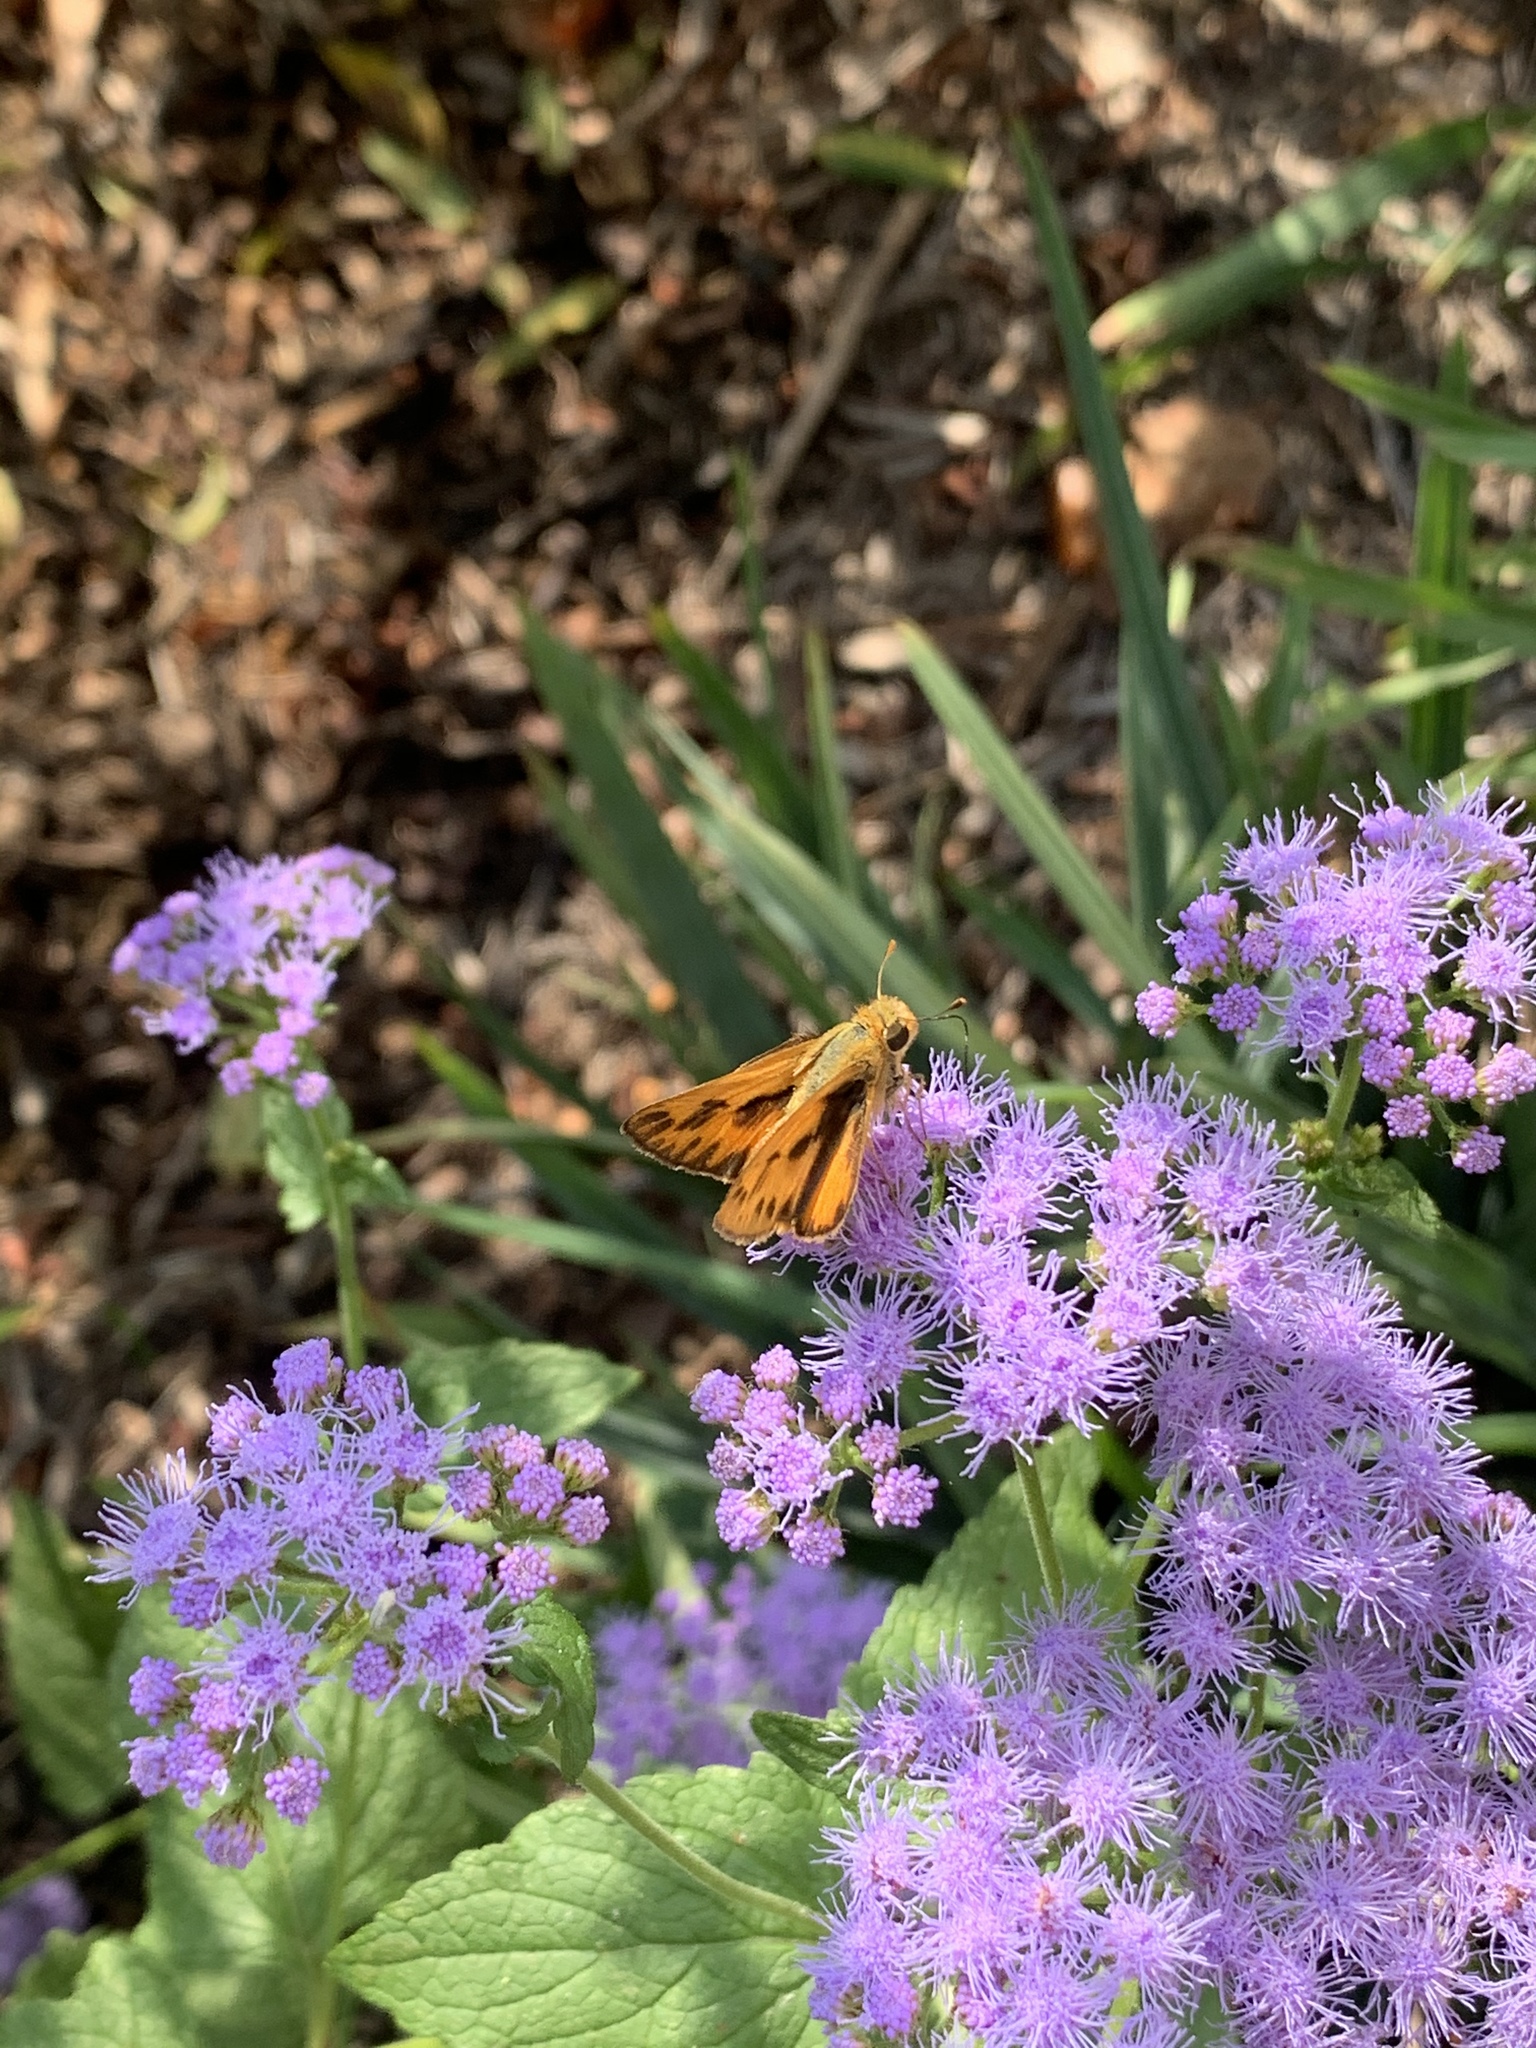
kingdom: Animalia
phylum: Arthropoda
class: Insecta
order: Lepidoptera
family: Hesperiidae
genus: Hylephila
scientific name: Hylephila phyleus
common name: Fiery skipper
